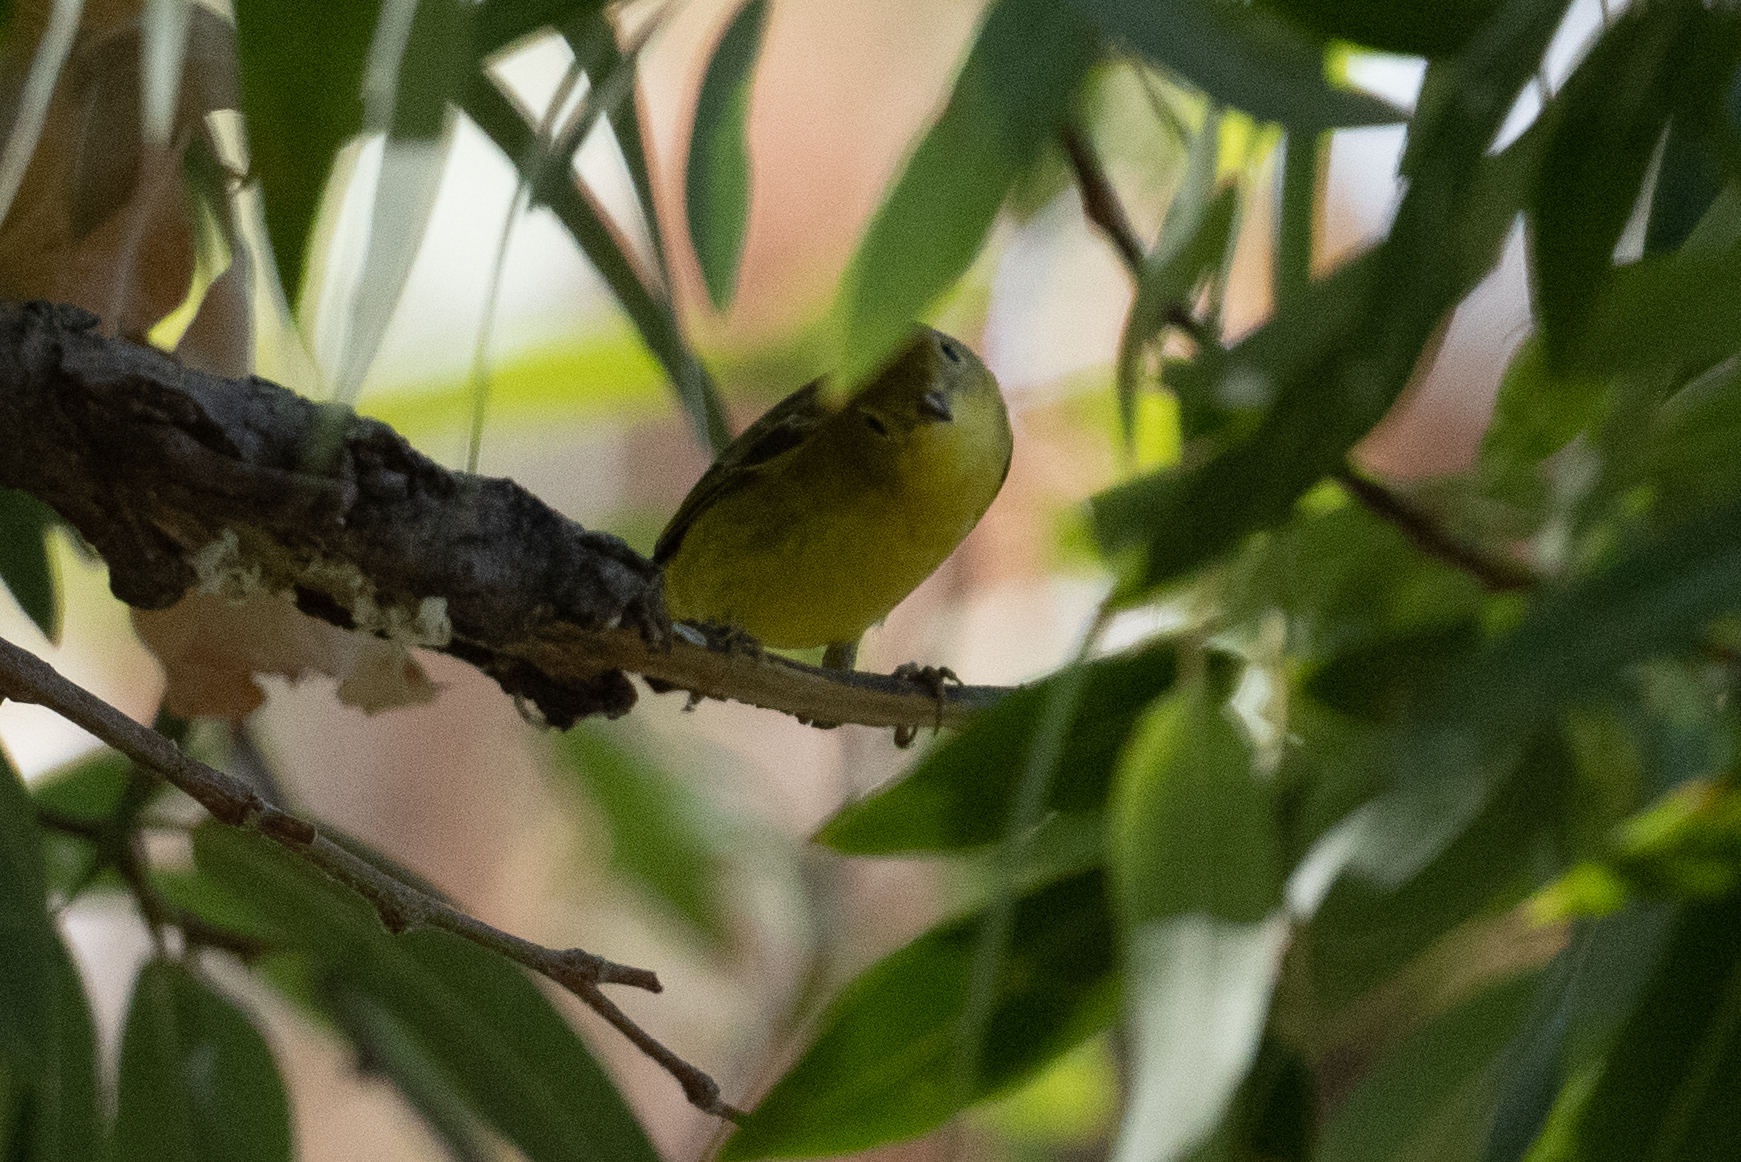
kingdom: Animalia
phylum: Chordata
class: Aves
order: Passeriformes
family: Parulidae
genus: Setophaga
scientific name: Setophaga petechia
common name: Yellow warbler
